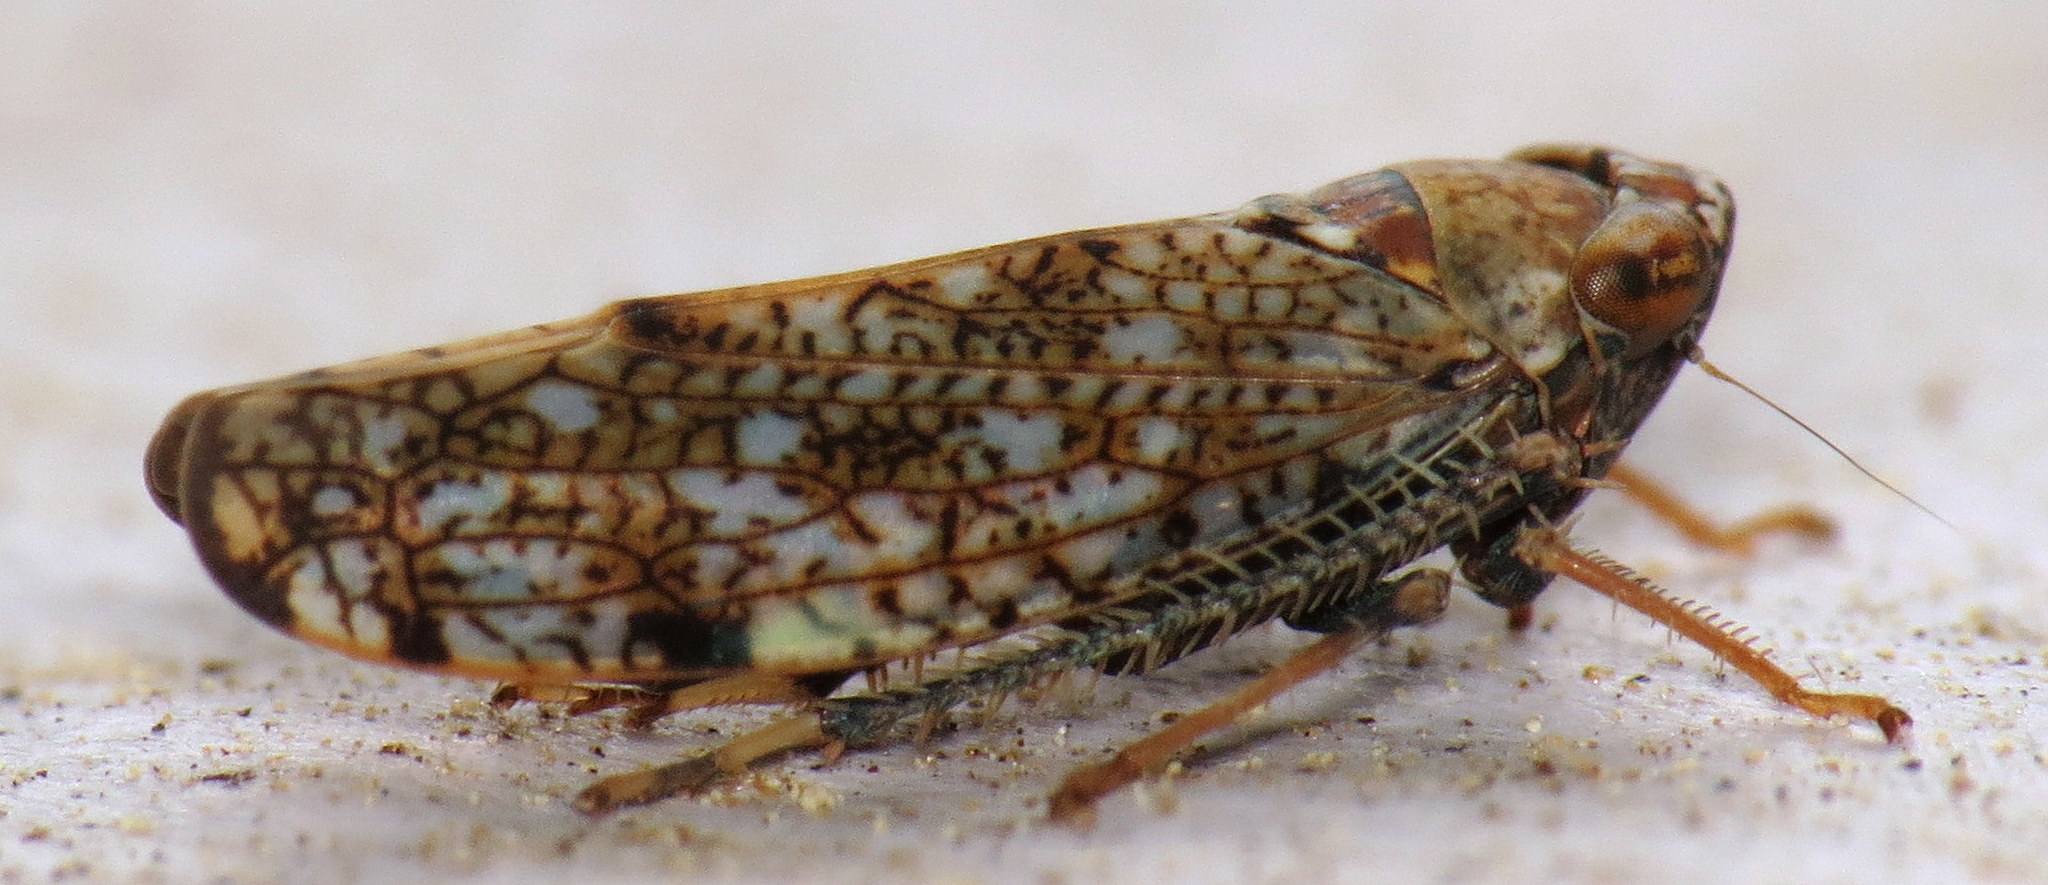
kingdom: Animalia
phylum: Arthropoda
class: Insecta
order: Hemiptera
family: Cicadellidae
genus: Orientus
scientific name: Orientus ishidae
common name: Japanese leafhopper
